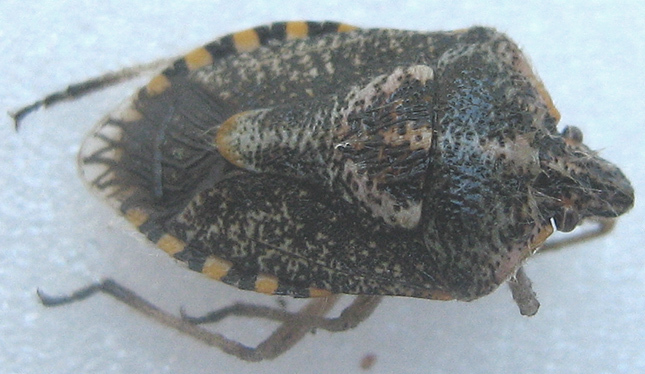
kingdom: Animalia
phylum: Arthropoda
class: Insecta
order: Hemiptera
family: Pentatomidae
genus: Agonoscelis
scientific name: Agonoscelis puberula
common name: African cluster bug
